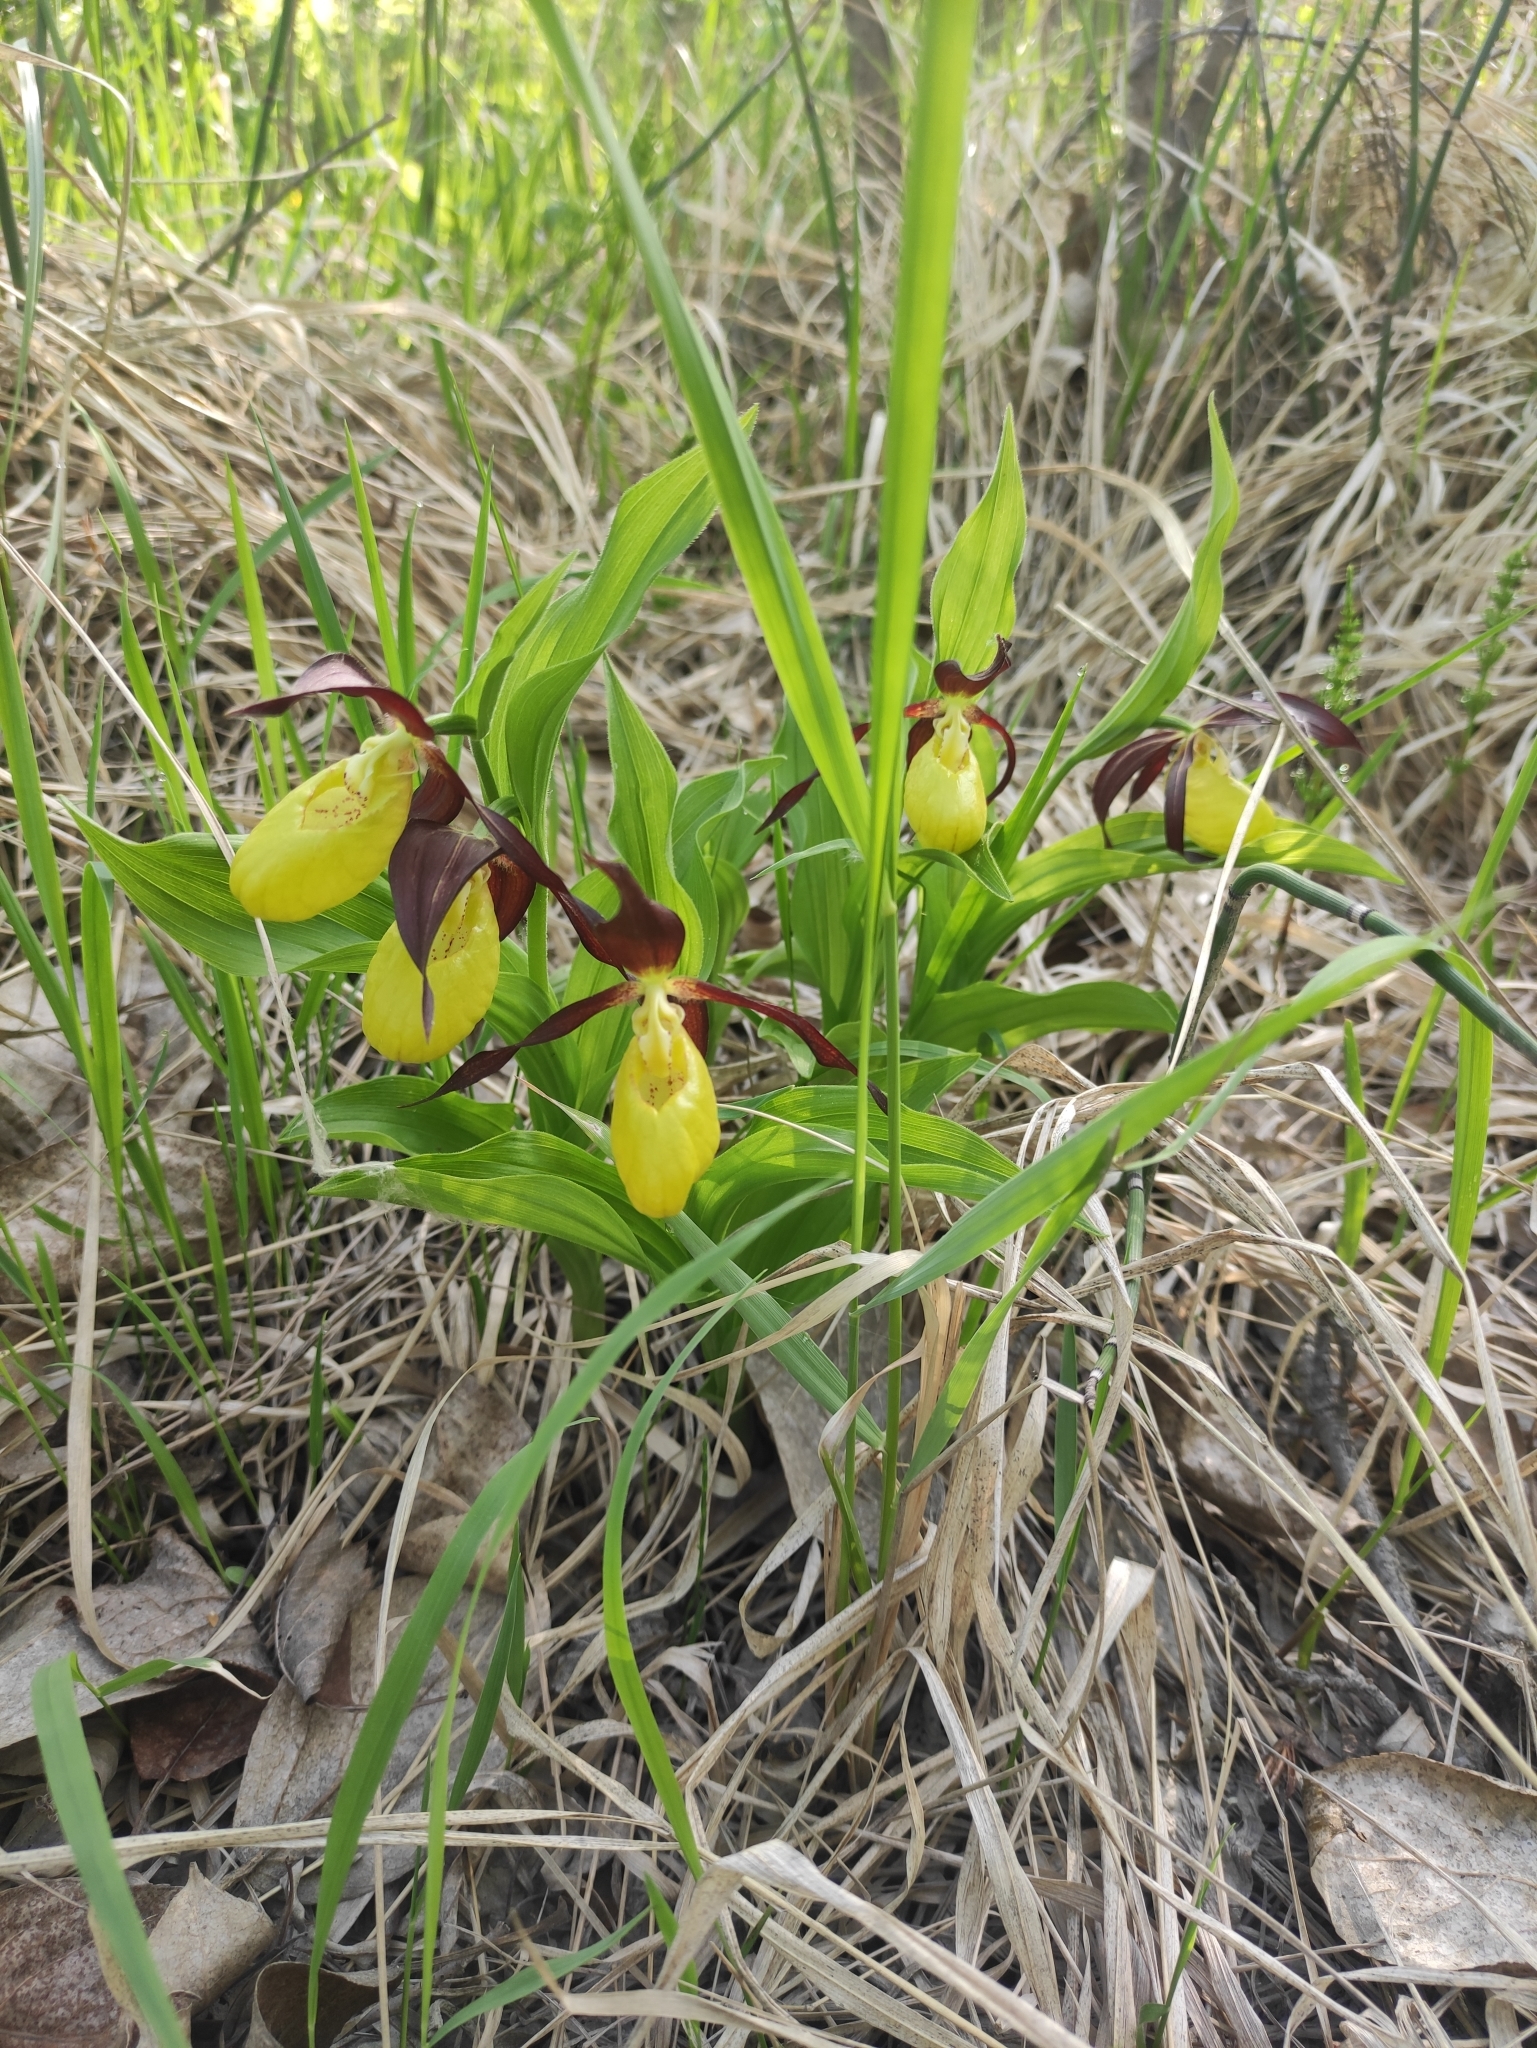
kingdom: Plantae
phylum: Tracheophyta
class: Liliopsida
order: Asparagales
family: Orchidaceae
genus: Cypripedium
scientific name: Cypripedium calceolus
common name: Lady's-slipper
